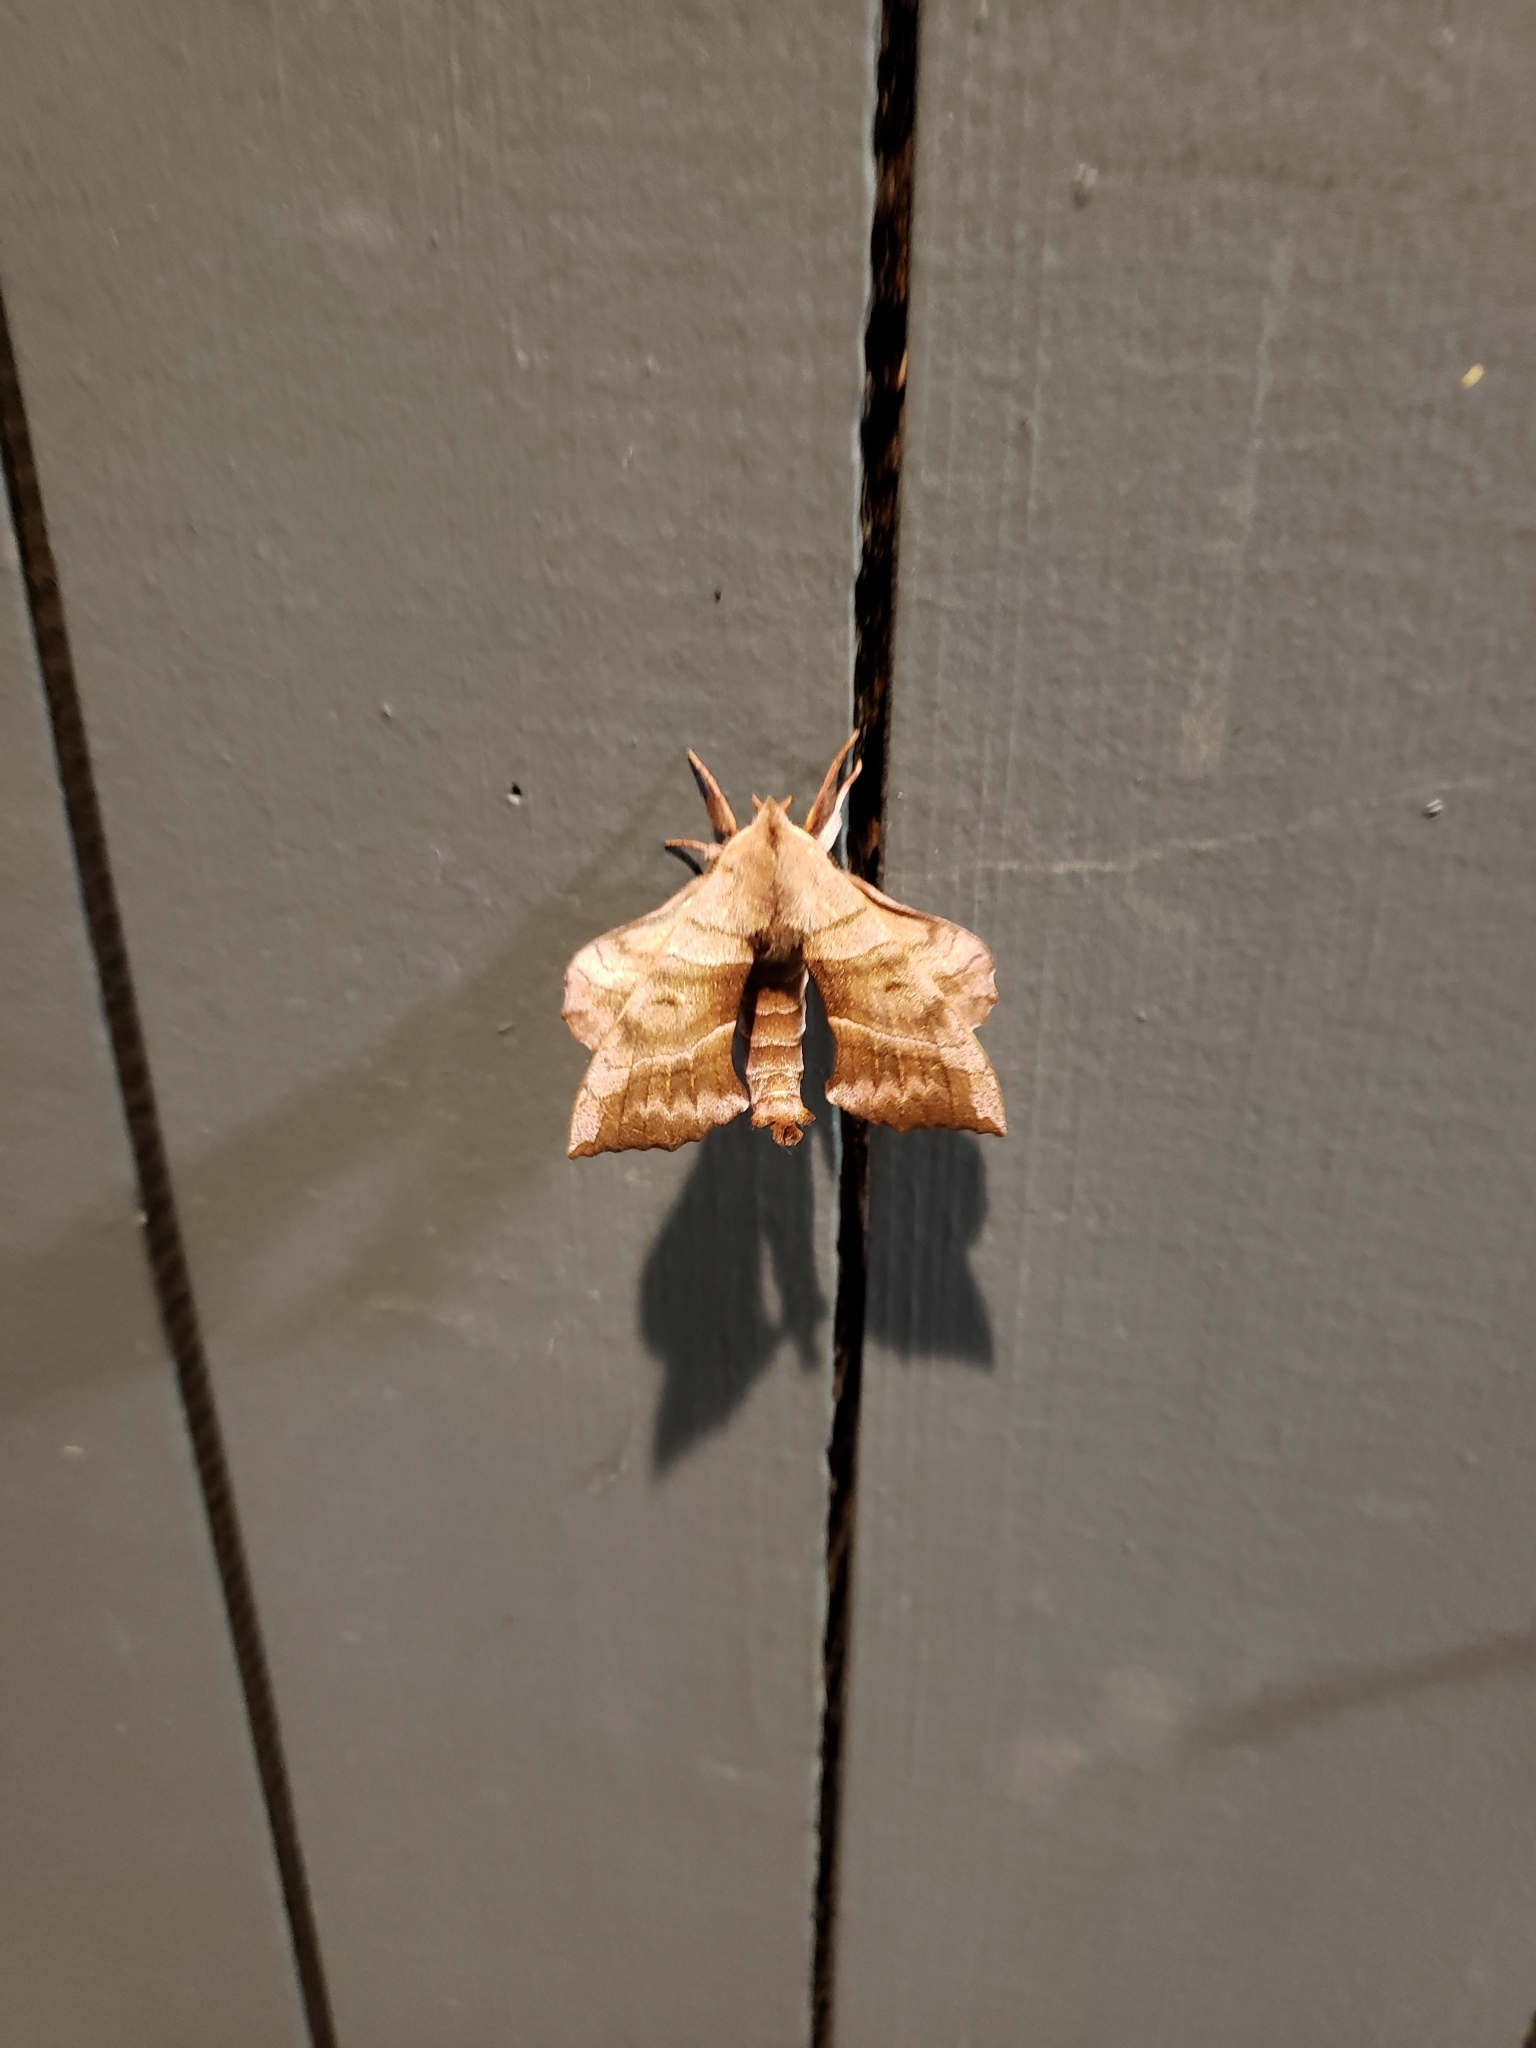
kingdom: Animalia
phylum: Arthropoda
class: Insecta
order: Lepidoptera
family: Sphingidae
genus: Amorpha
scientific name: Amorpha juglandis
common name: Walnut sphinx
